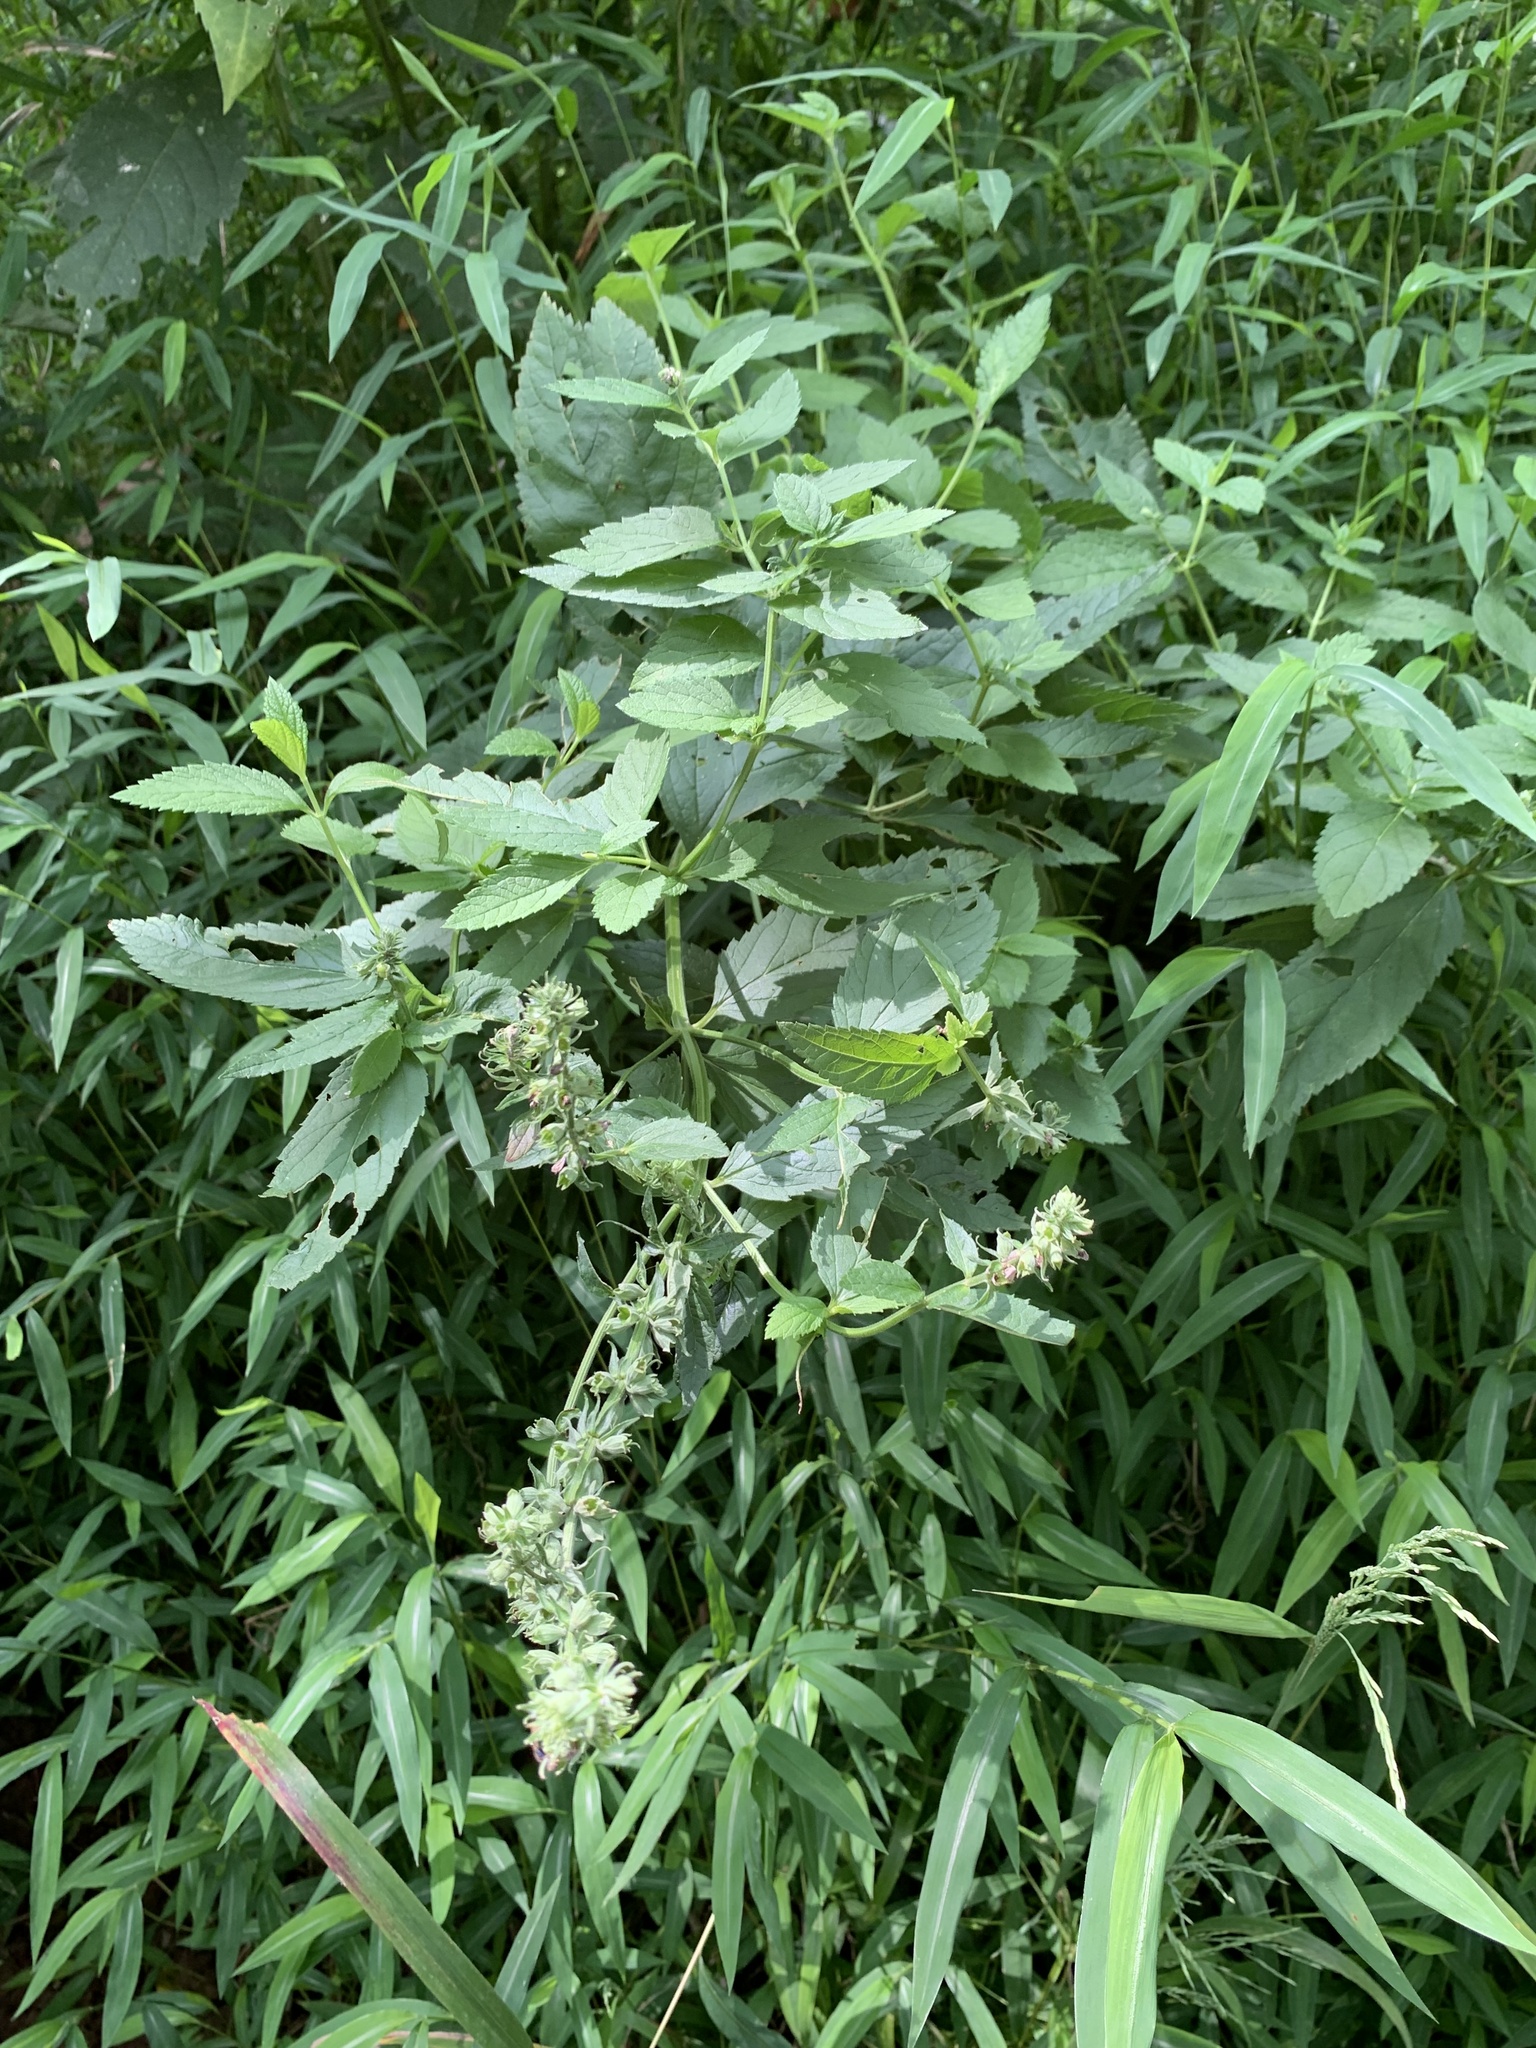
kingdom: Plantae
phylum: Tracheophyta
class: Magnoliopsida
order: Lamiales
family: Lamiaceae
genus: Teucrium
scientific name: Teucrium canadense
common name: American germander
